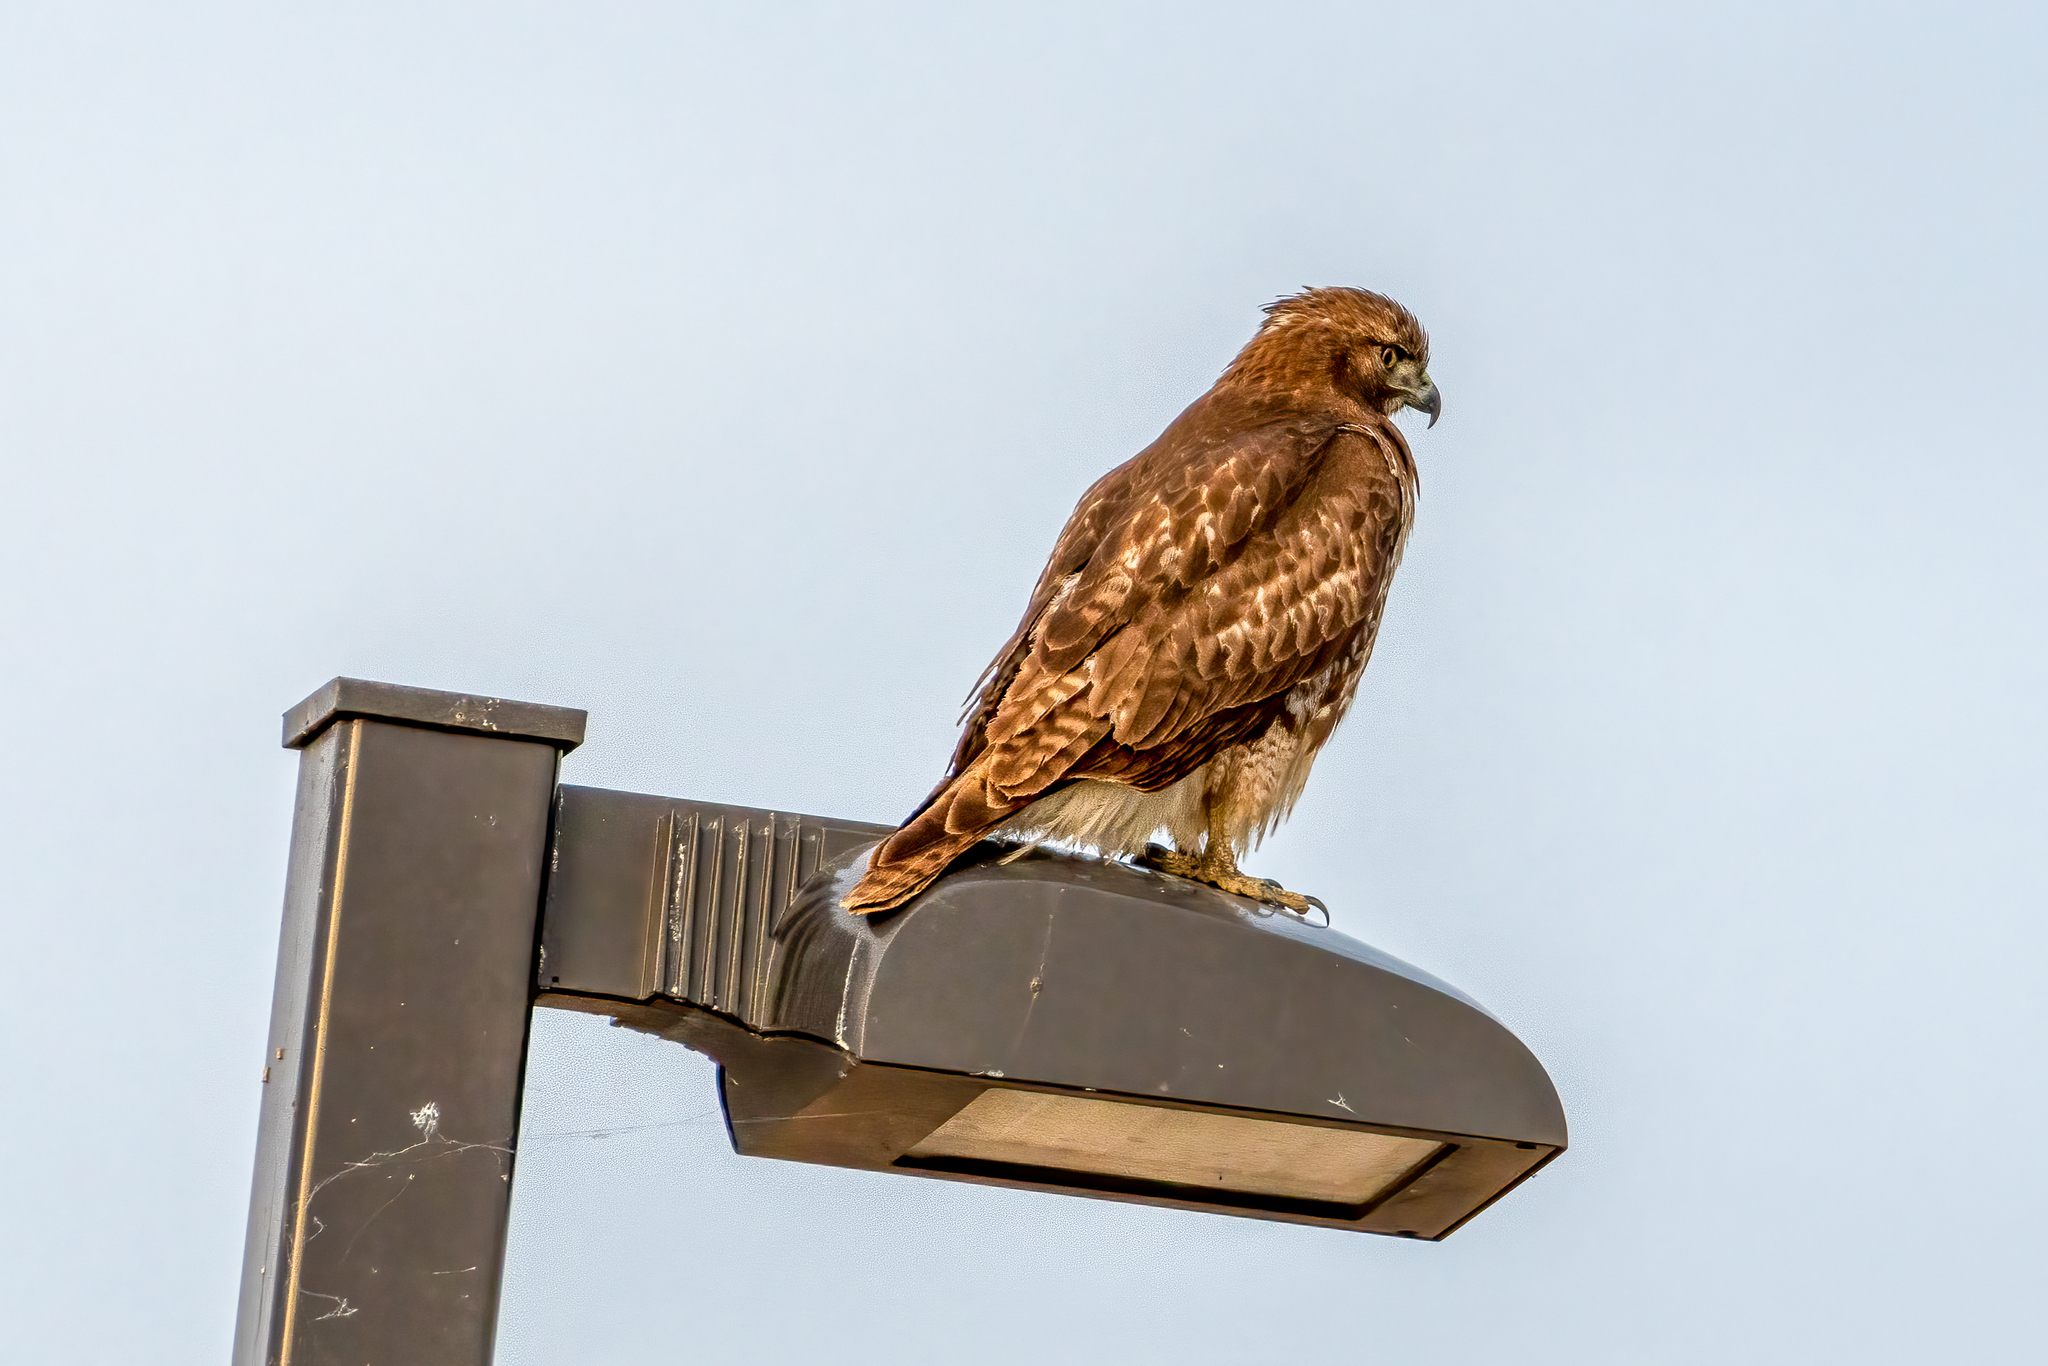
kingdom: Animalia
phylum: Chordata
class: Aves
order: Accipitriformes
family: Accipitridae
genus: Buteo
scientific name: Buteo jamaicensis
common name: Red-tailed hawk
